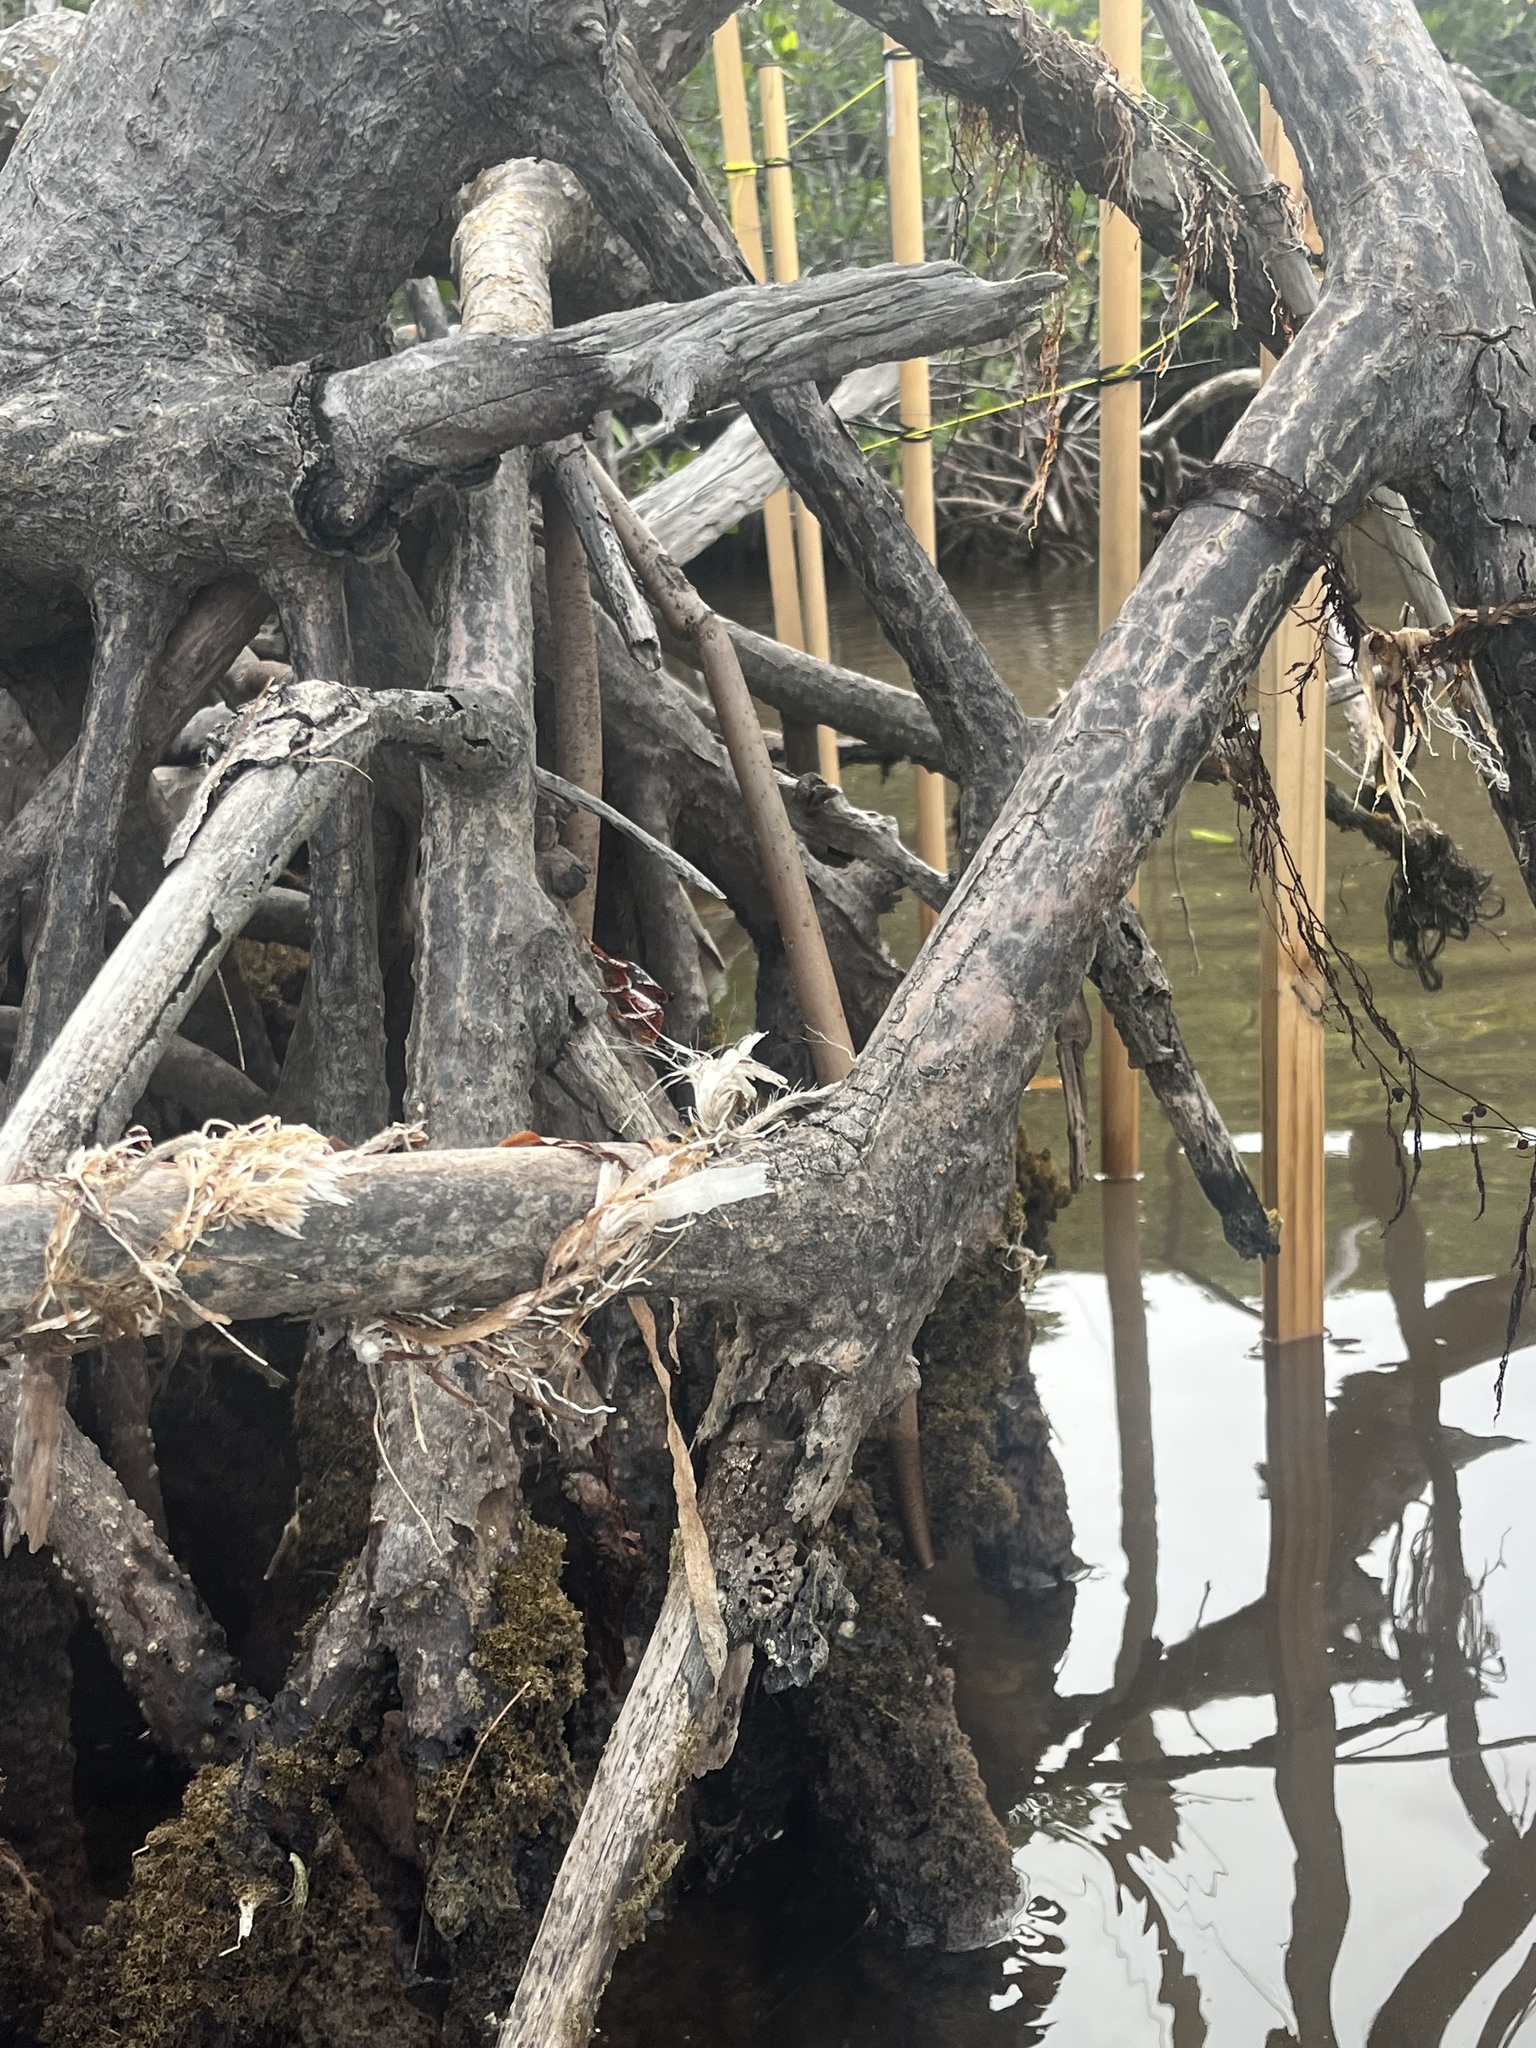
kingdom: Animalia
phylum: Arthropoda
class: Malacostraca
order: Decapoda
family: Grapsidae
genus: Goniopsis
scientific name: Goniopsis cruentata
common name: Mangrove crab
